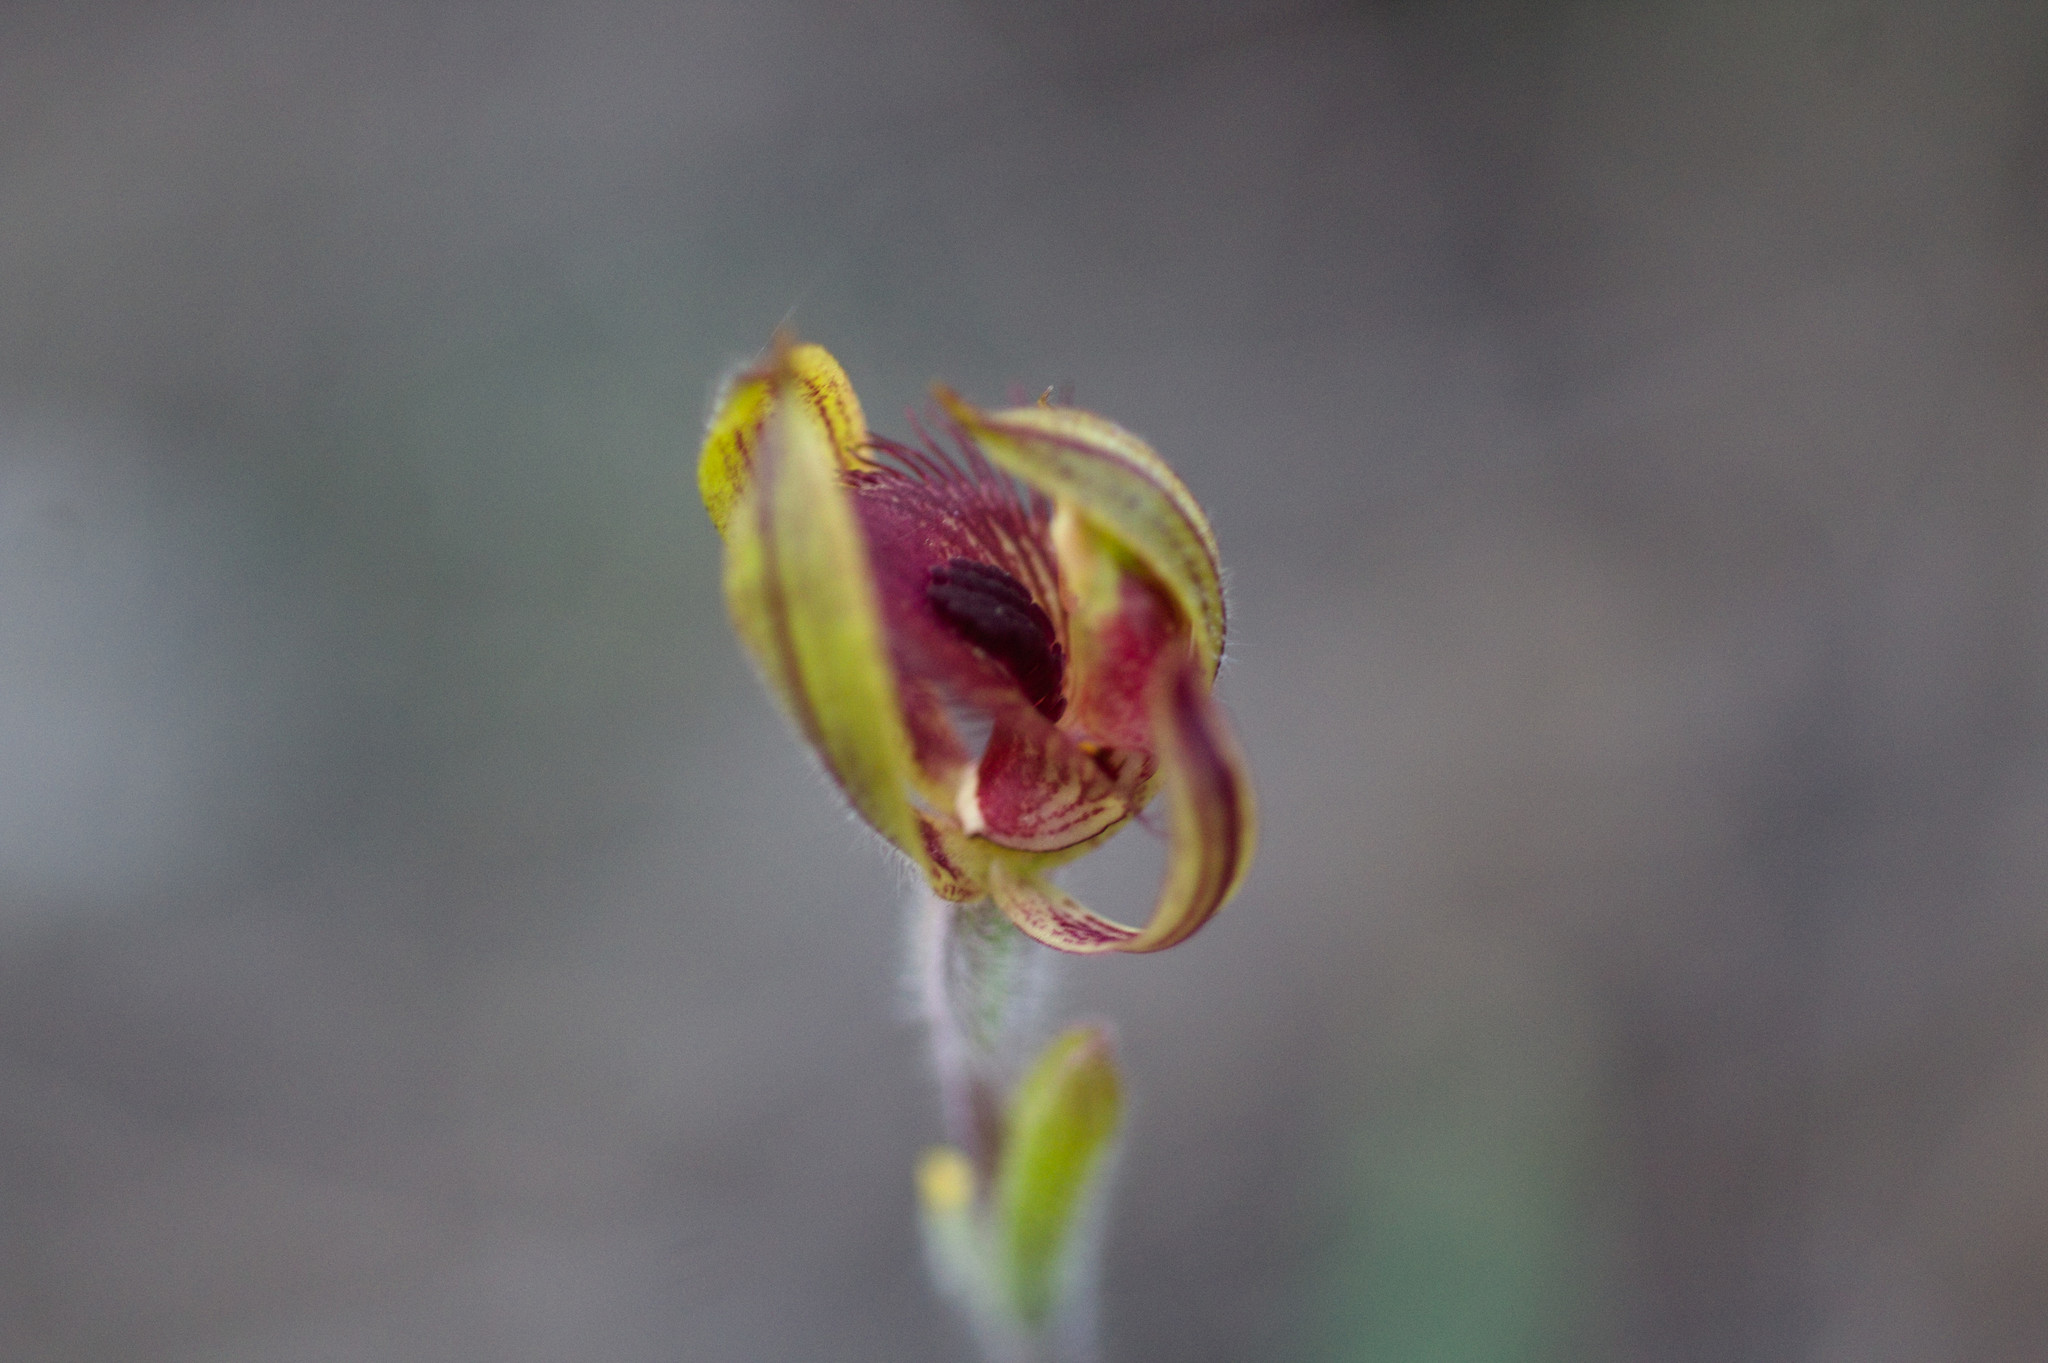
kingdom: Plantae
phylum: Tracheophyta
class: Liliopsida
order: Asparagales
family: Orchidaceae
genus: Caladenia
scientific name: Caladenia discoidea
